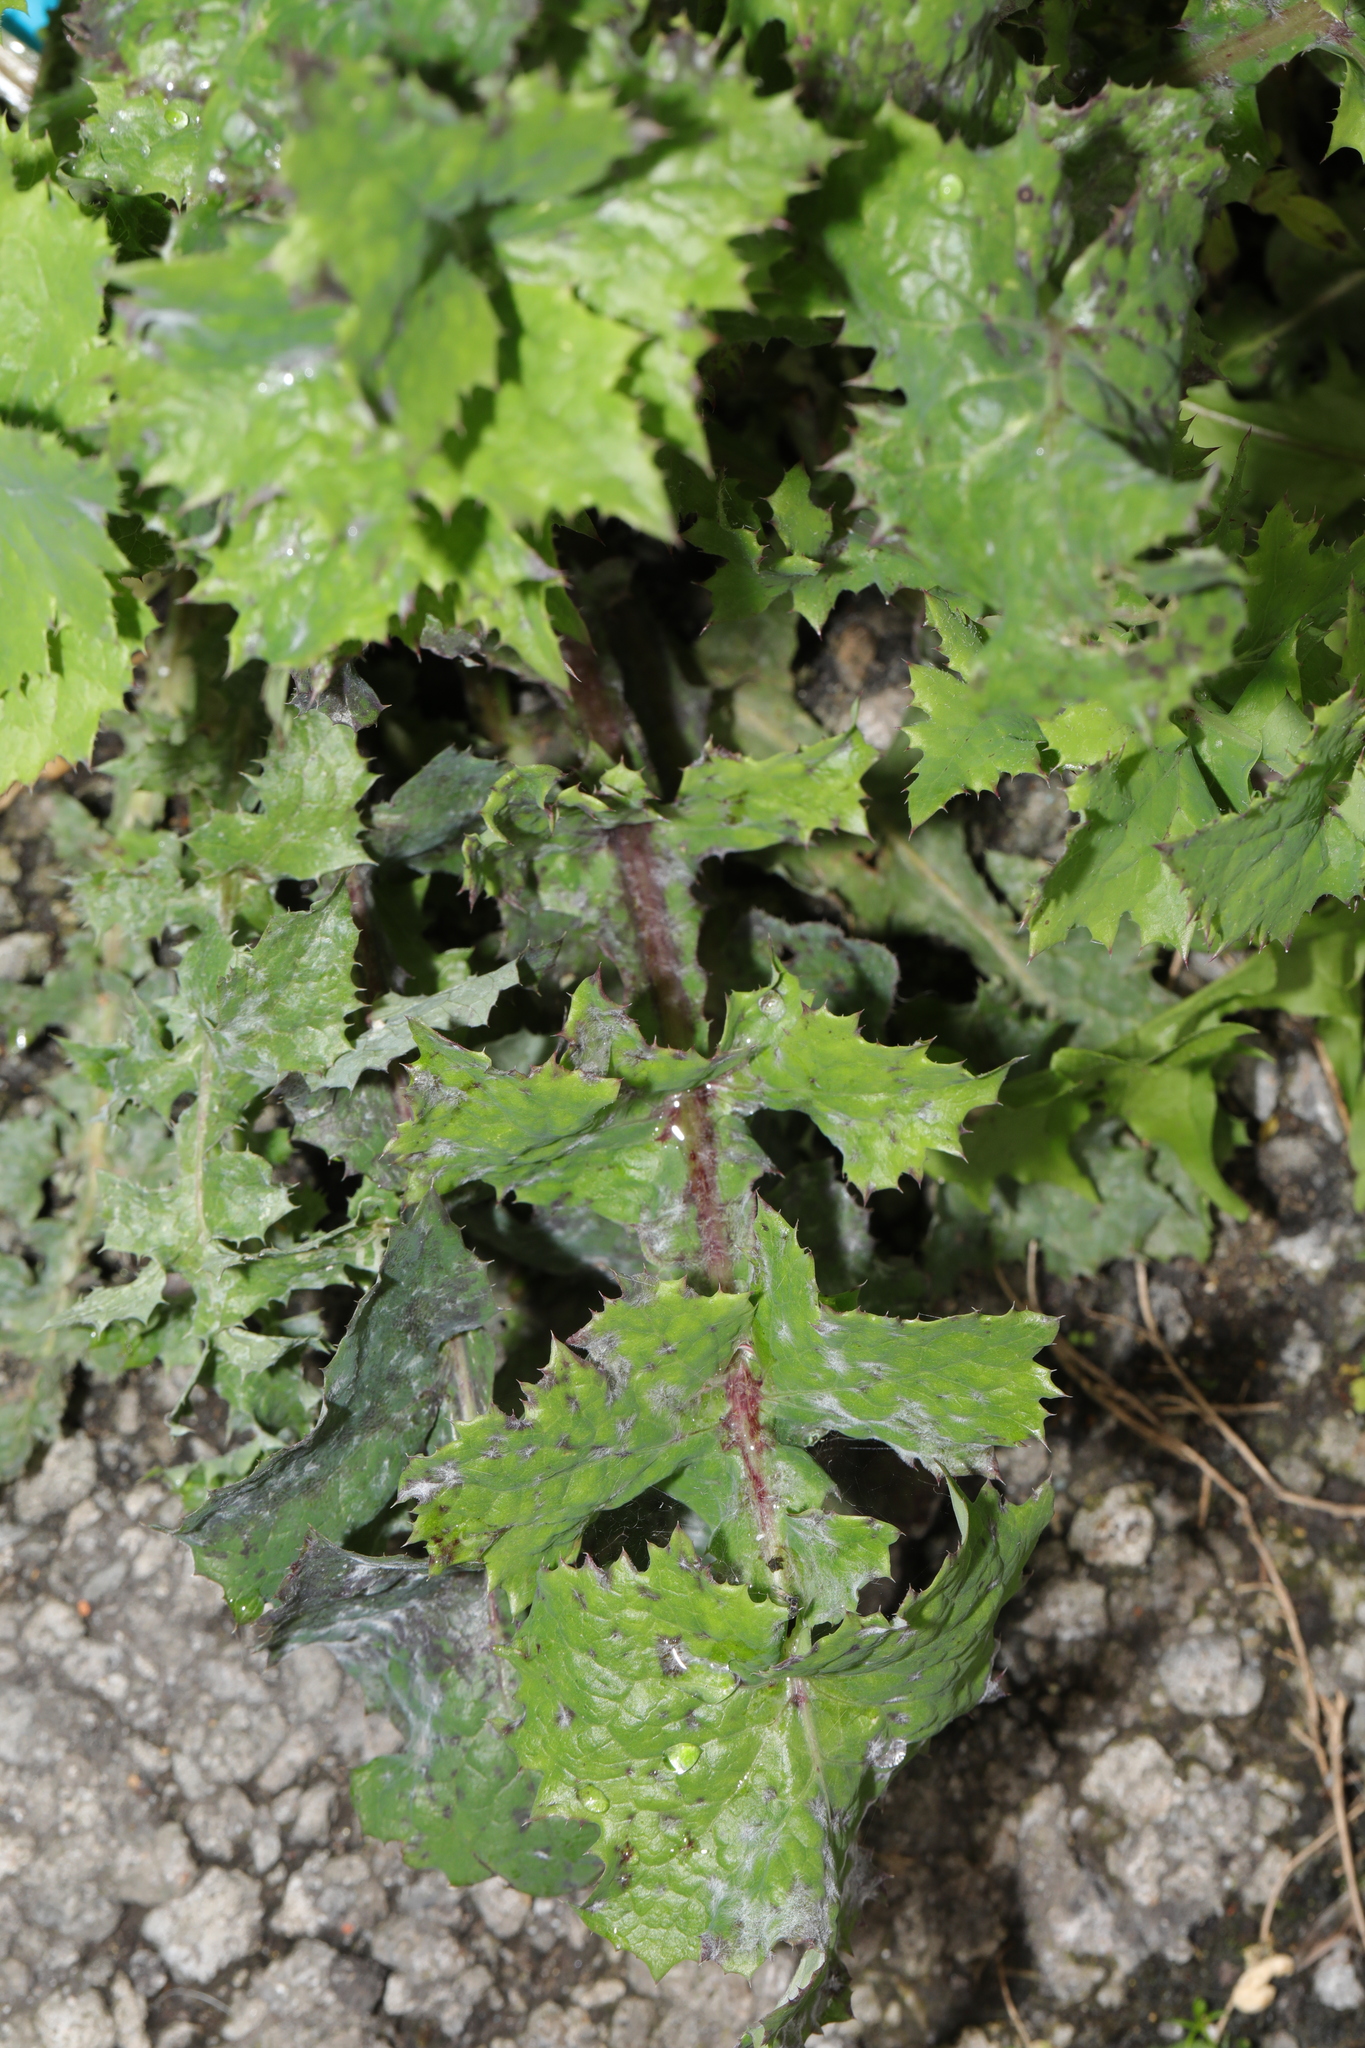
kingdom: Plantae
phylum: Tracheophyta
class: Magnoliopsida
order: Asterales
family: Asteraceae
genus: Sonchus
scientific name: Sonchus oleraceus
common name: Common sowthistle
